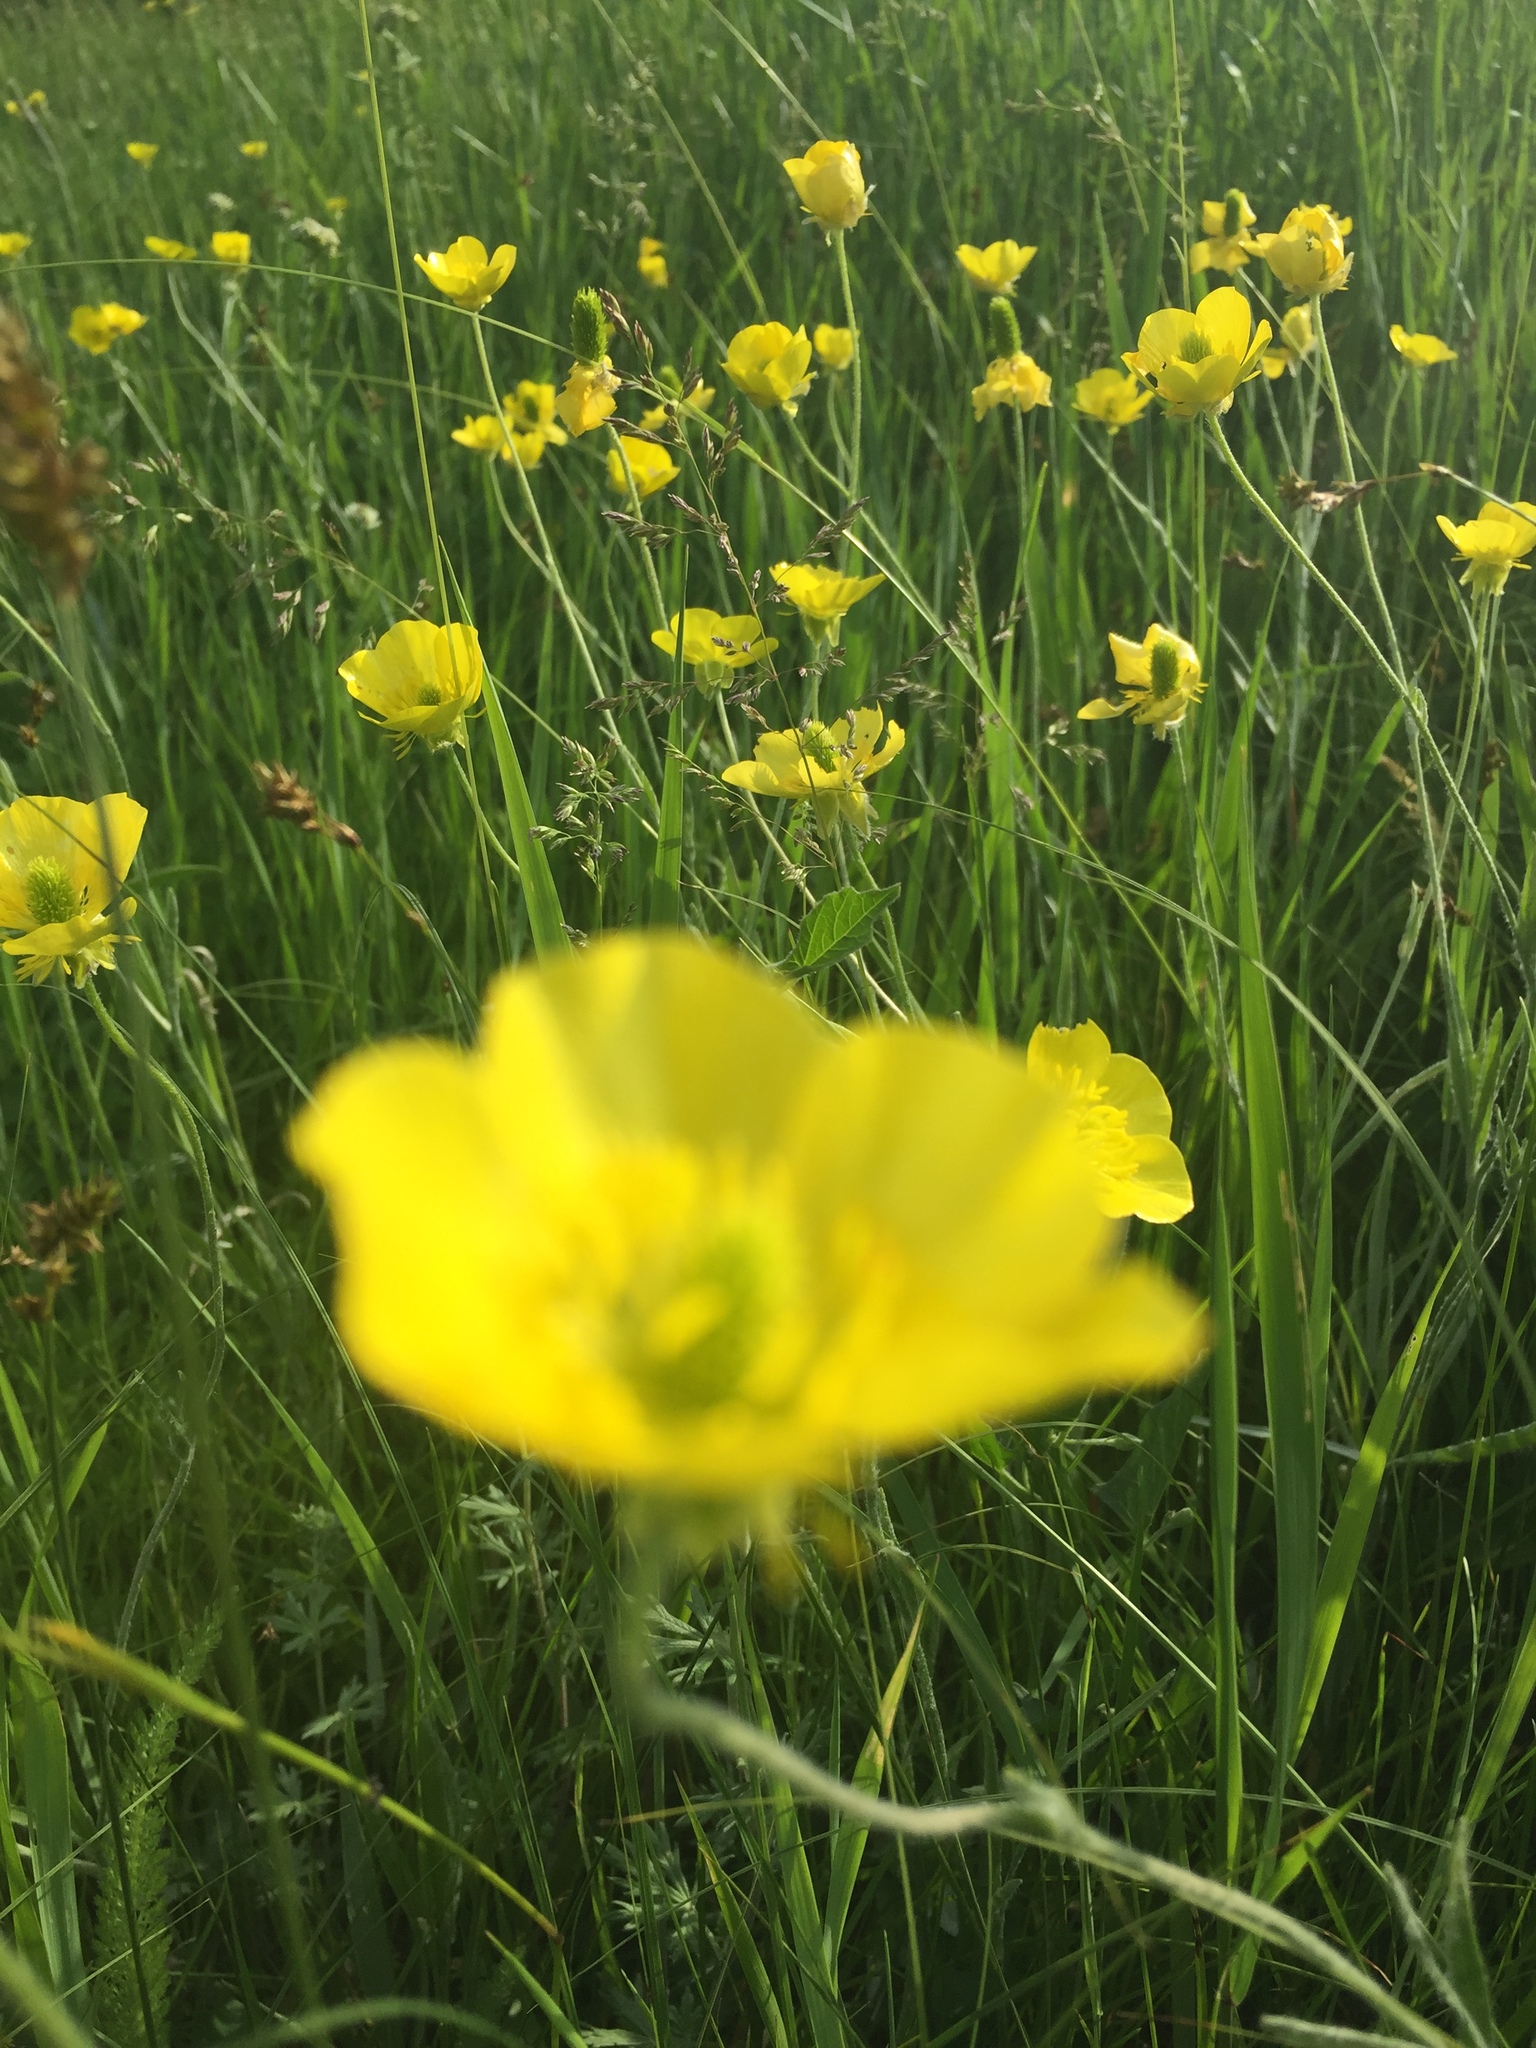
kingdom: Plantae
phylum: Tracheophyta
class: Magnoliopsida
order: Ranunculales
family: Ranunculaceae
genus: Ranunculus
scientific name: Ranunculus illyricus
